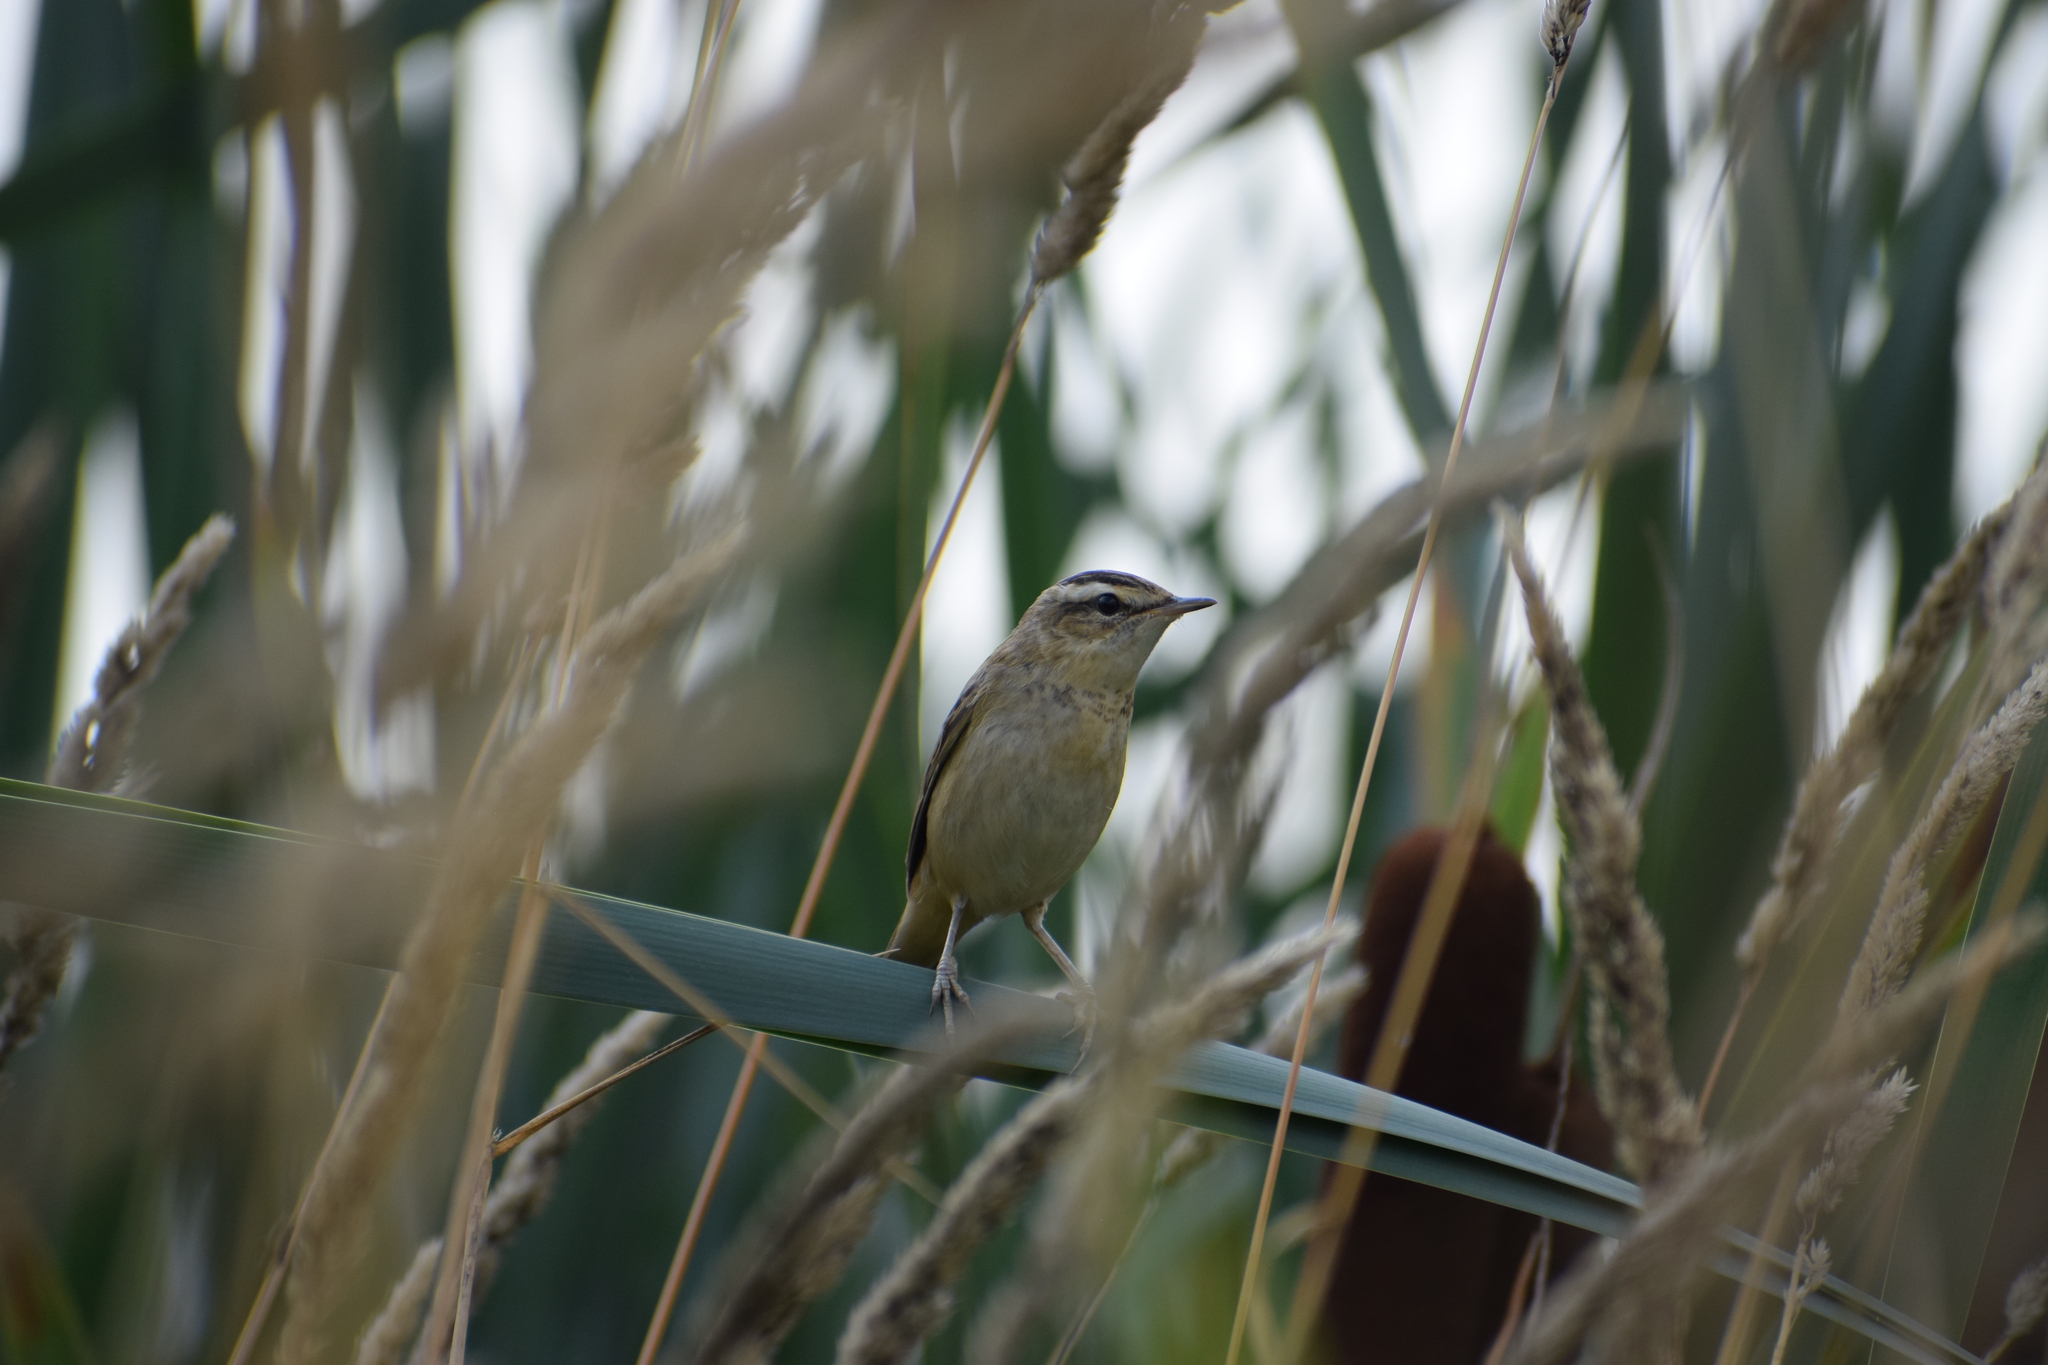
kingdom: Animalia
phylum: Chordata
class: Aves
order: Passeriformes
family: Acrocephalidae
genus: Acrocephalus
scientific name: Acrocephalus schoenobaenus
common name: Sedge warbler
